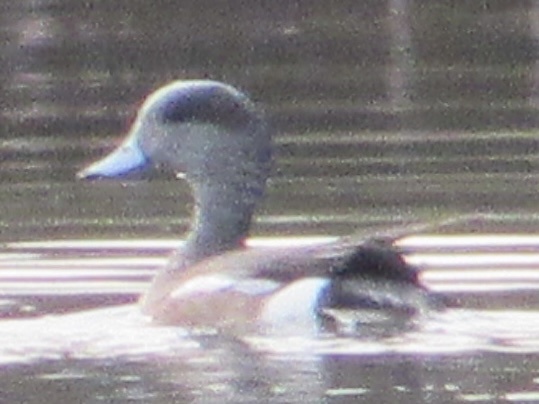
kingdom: Animalia
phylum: Chordata
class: Aves
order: Anseriformes
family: Anatidae
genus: Mareca
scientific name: Mareca americana
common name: American wigeon
